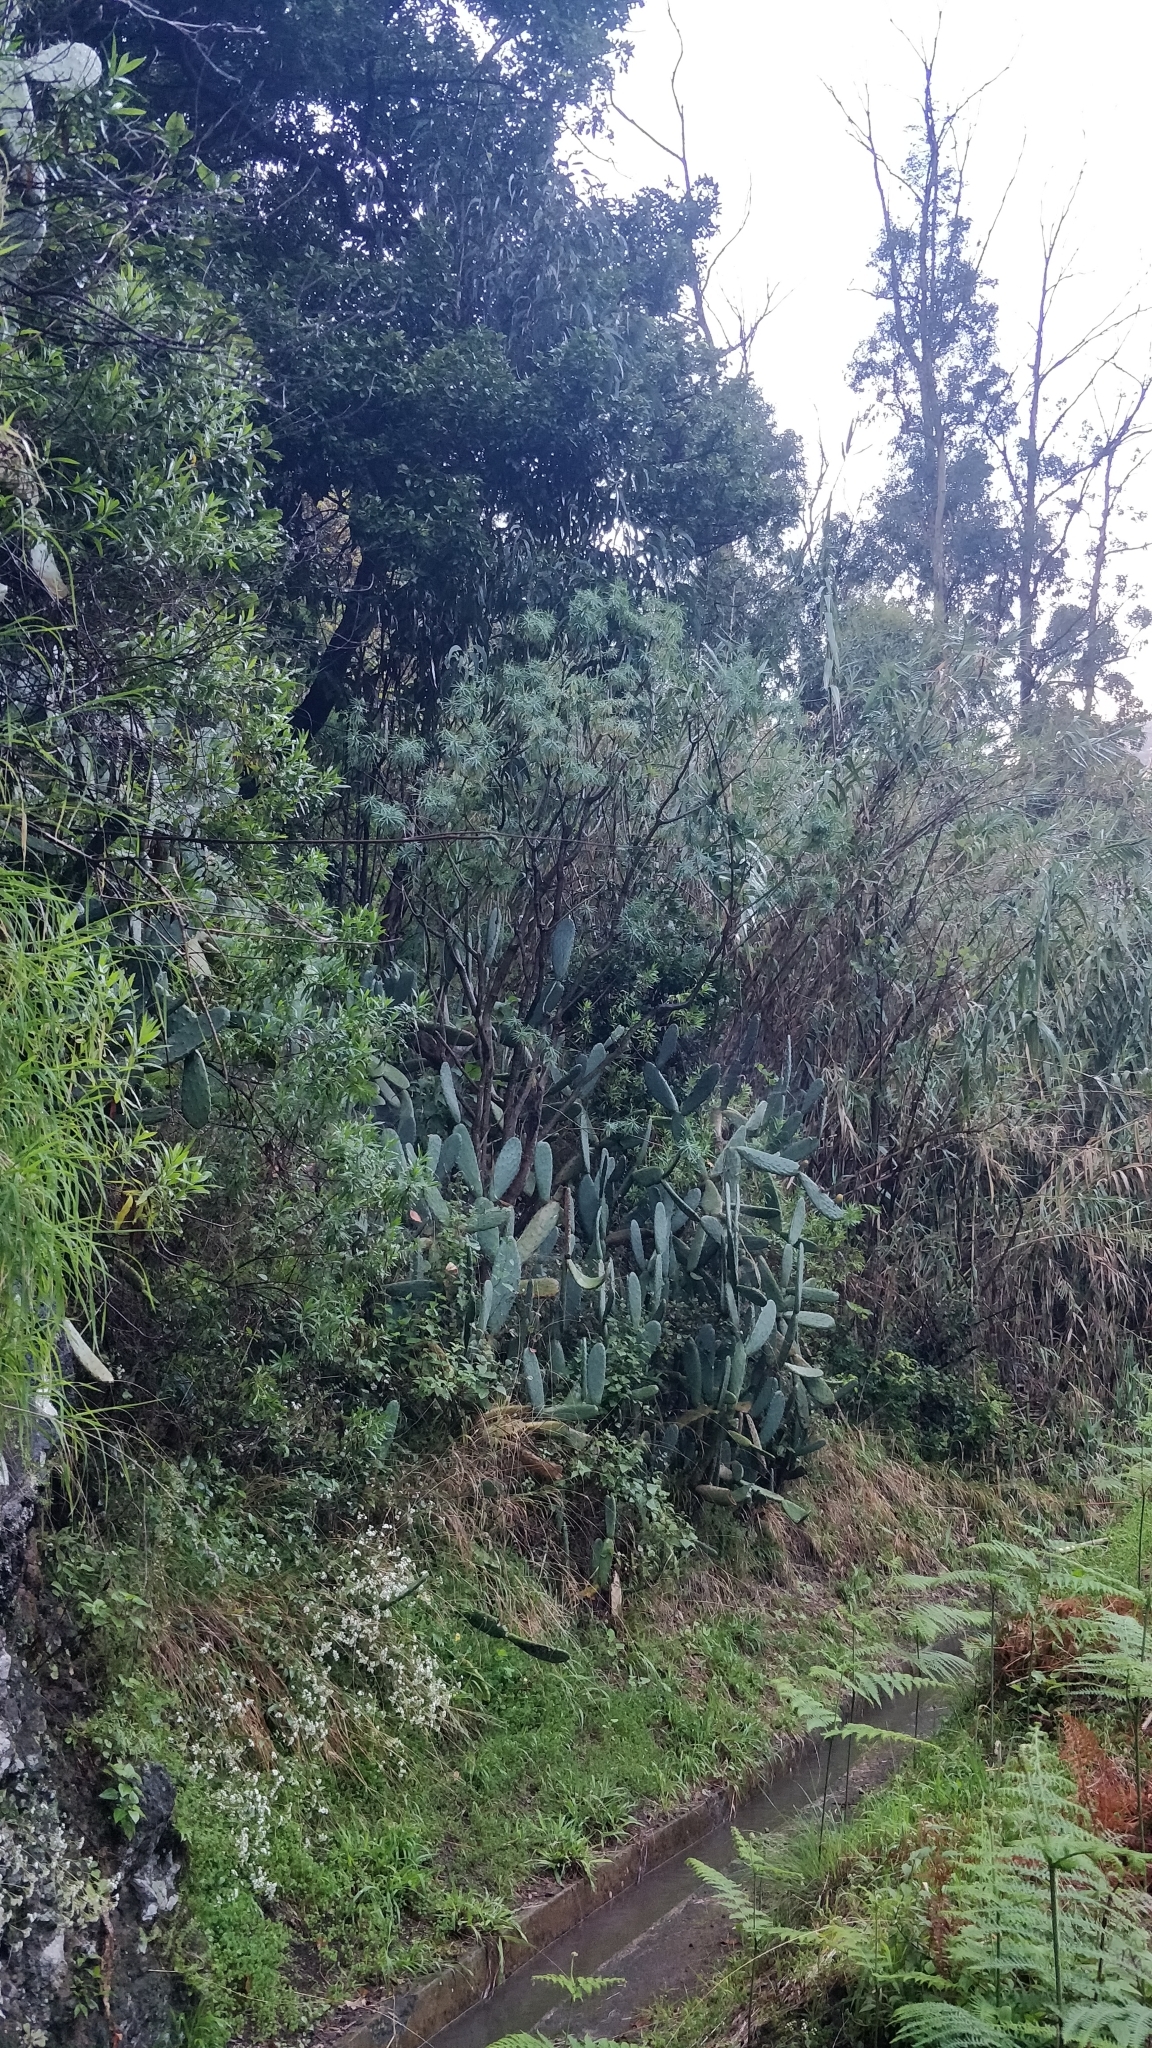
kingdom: Plantae
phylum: Tracheophyta
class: Magnoliopsida
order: Caryophyllales
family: Cactaceae
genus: Opuntia
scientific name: Opuntia ficus-indica
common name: Barbary fig
